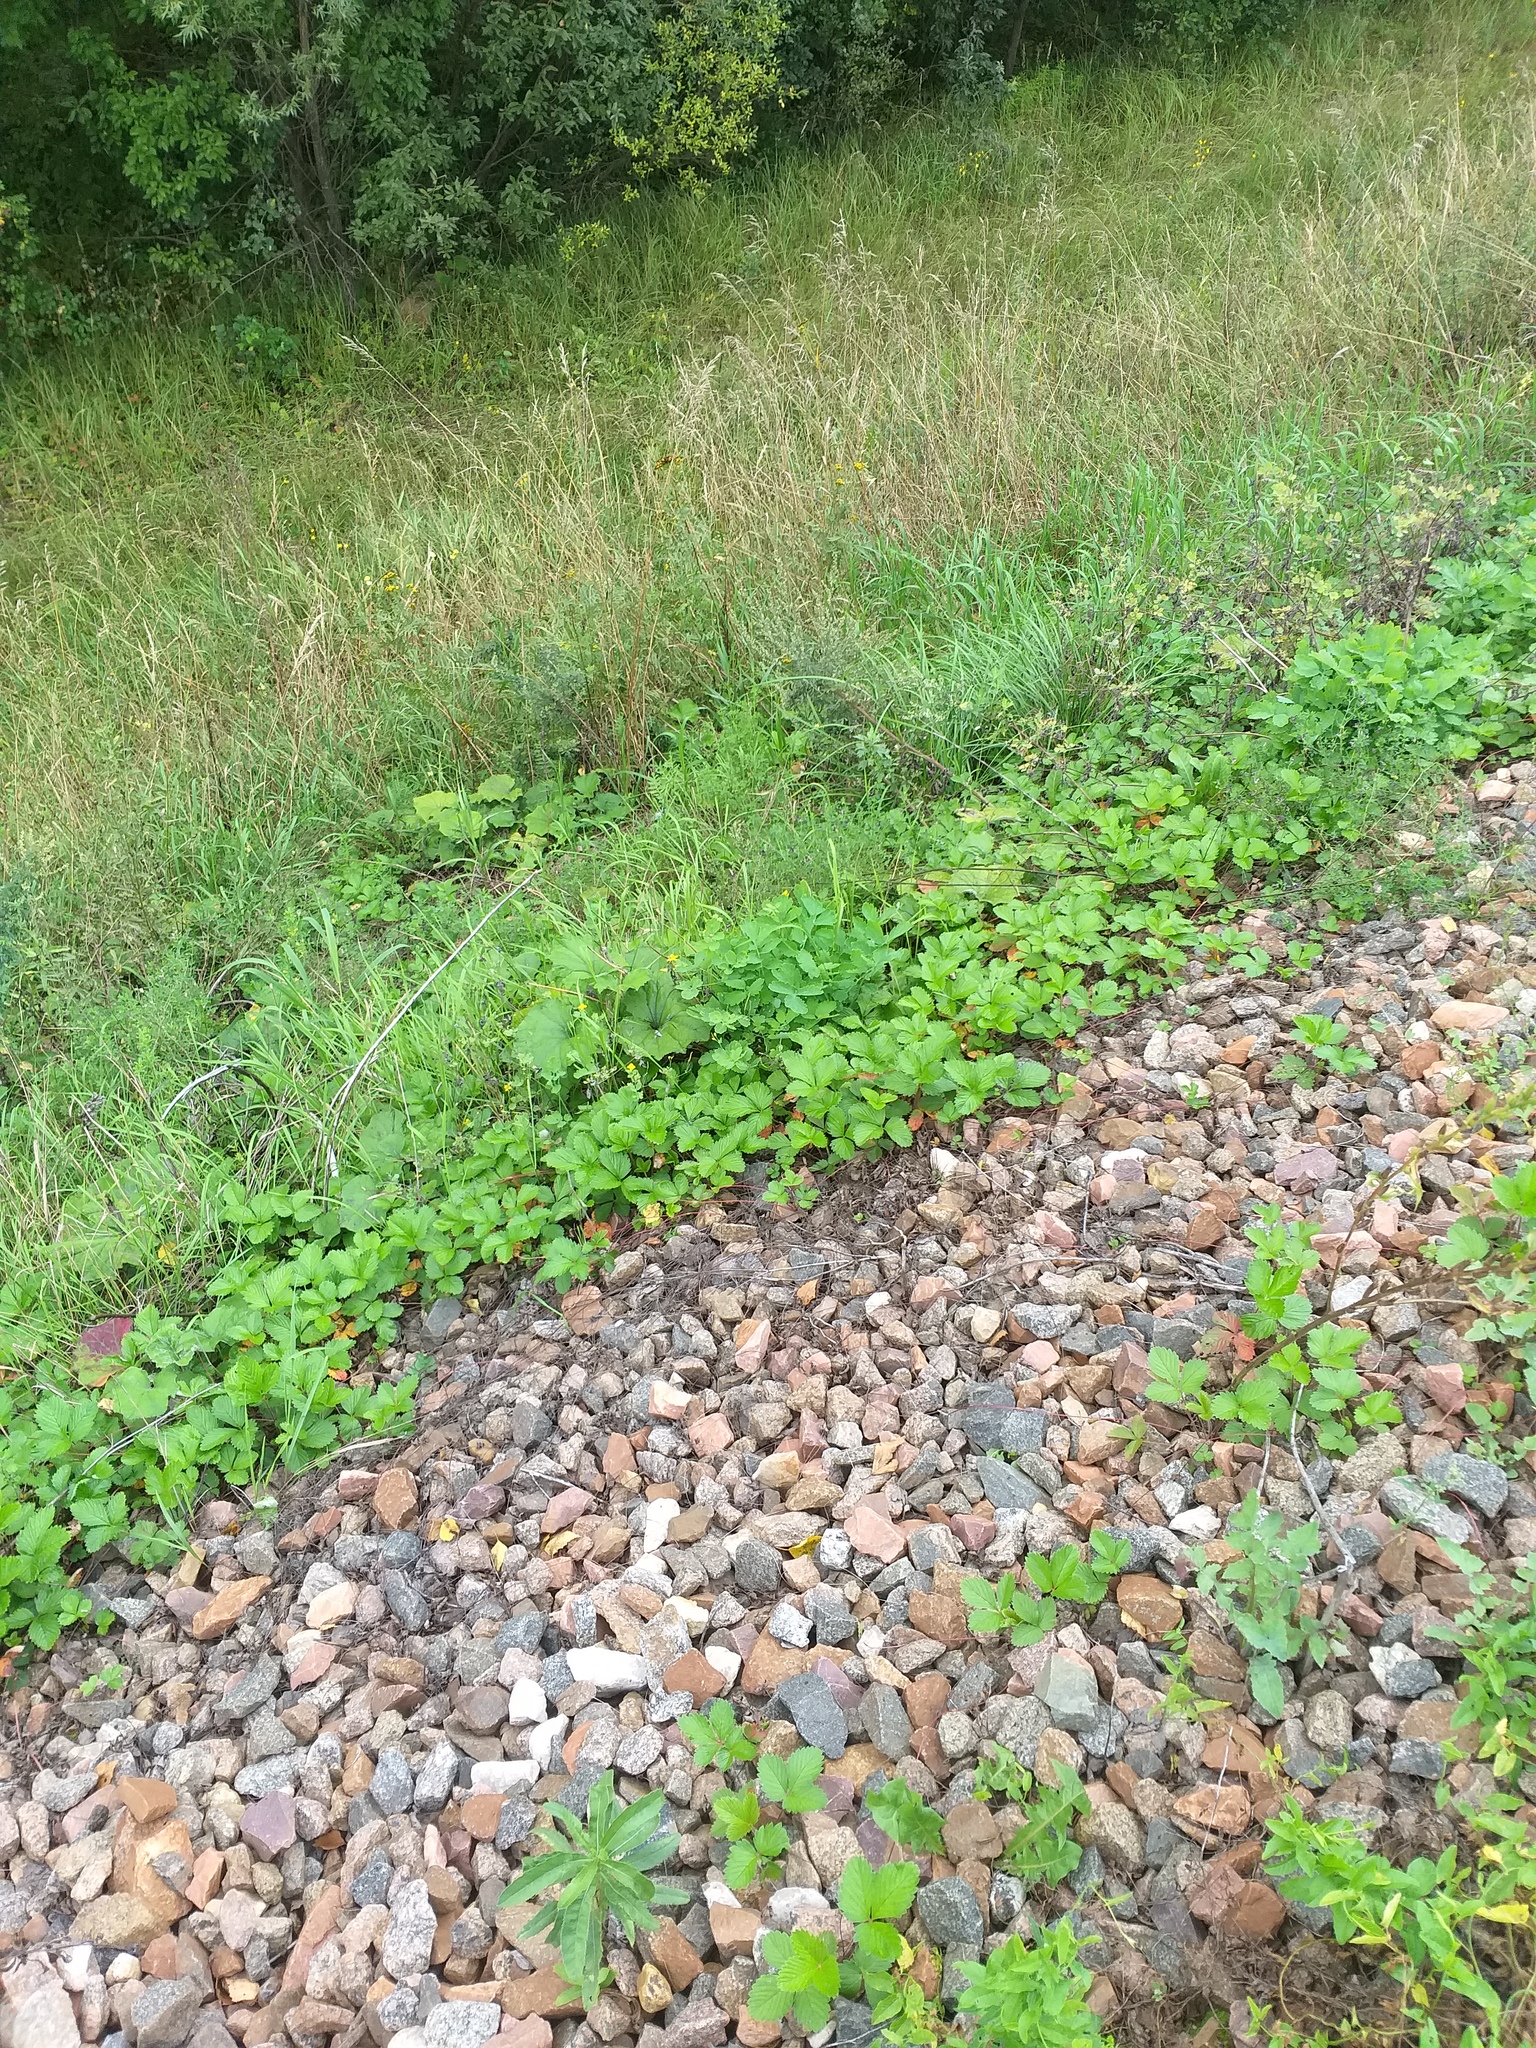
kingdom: Plantae
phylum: Tracheophyta
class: Magnoliopsida
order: Rosales
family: Rosaceae
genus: Fragaria
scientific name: Fragaria vesca
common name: Wild strawberry
